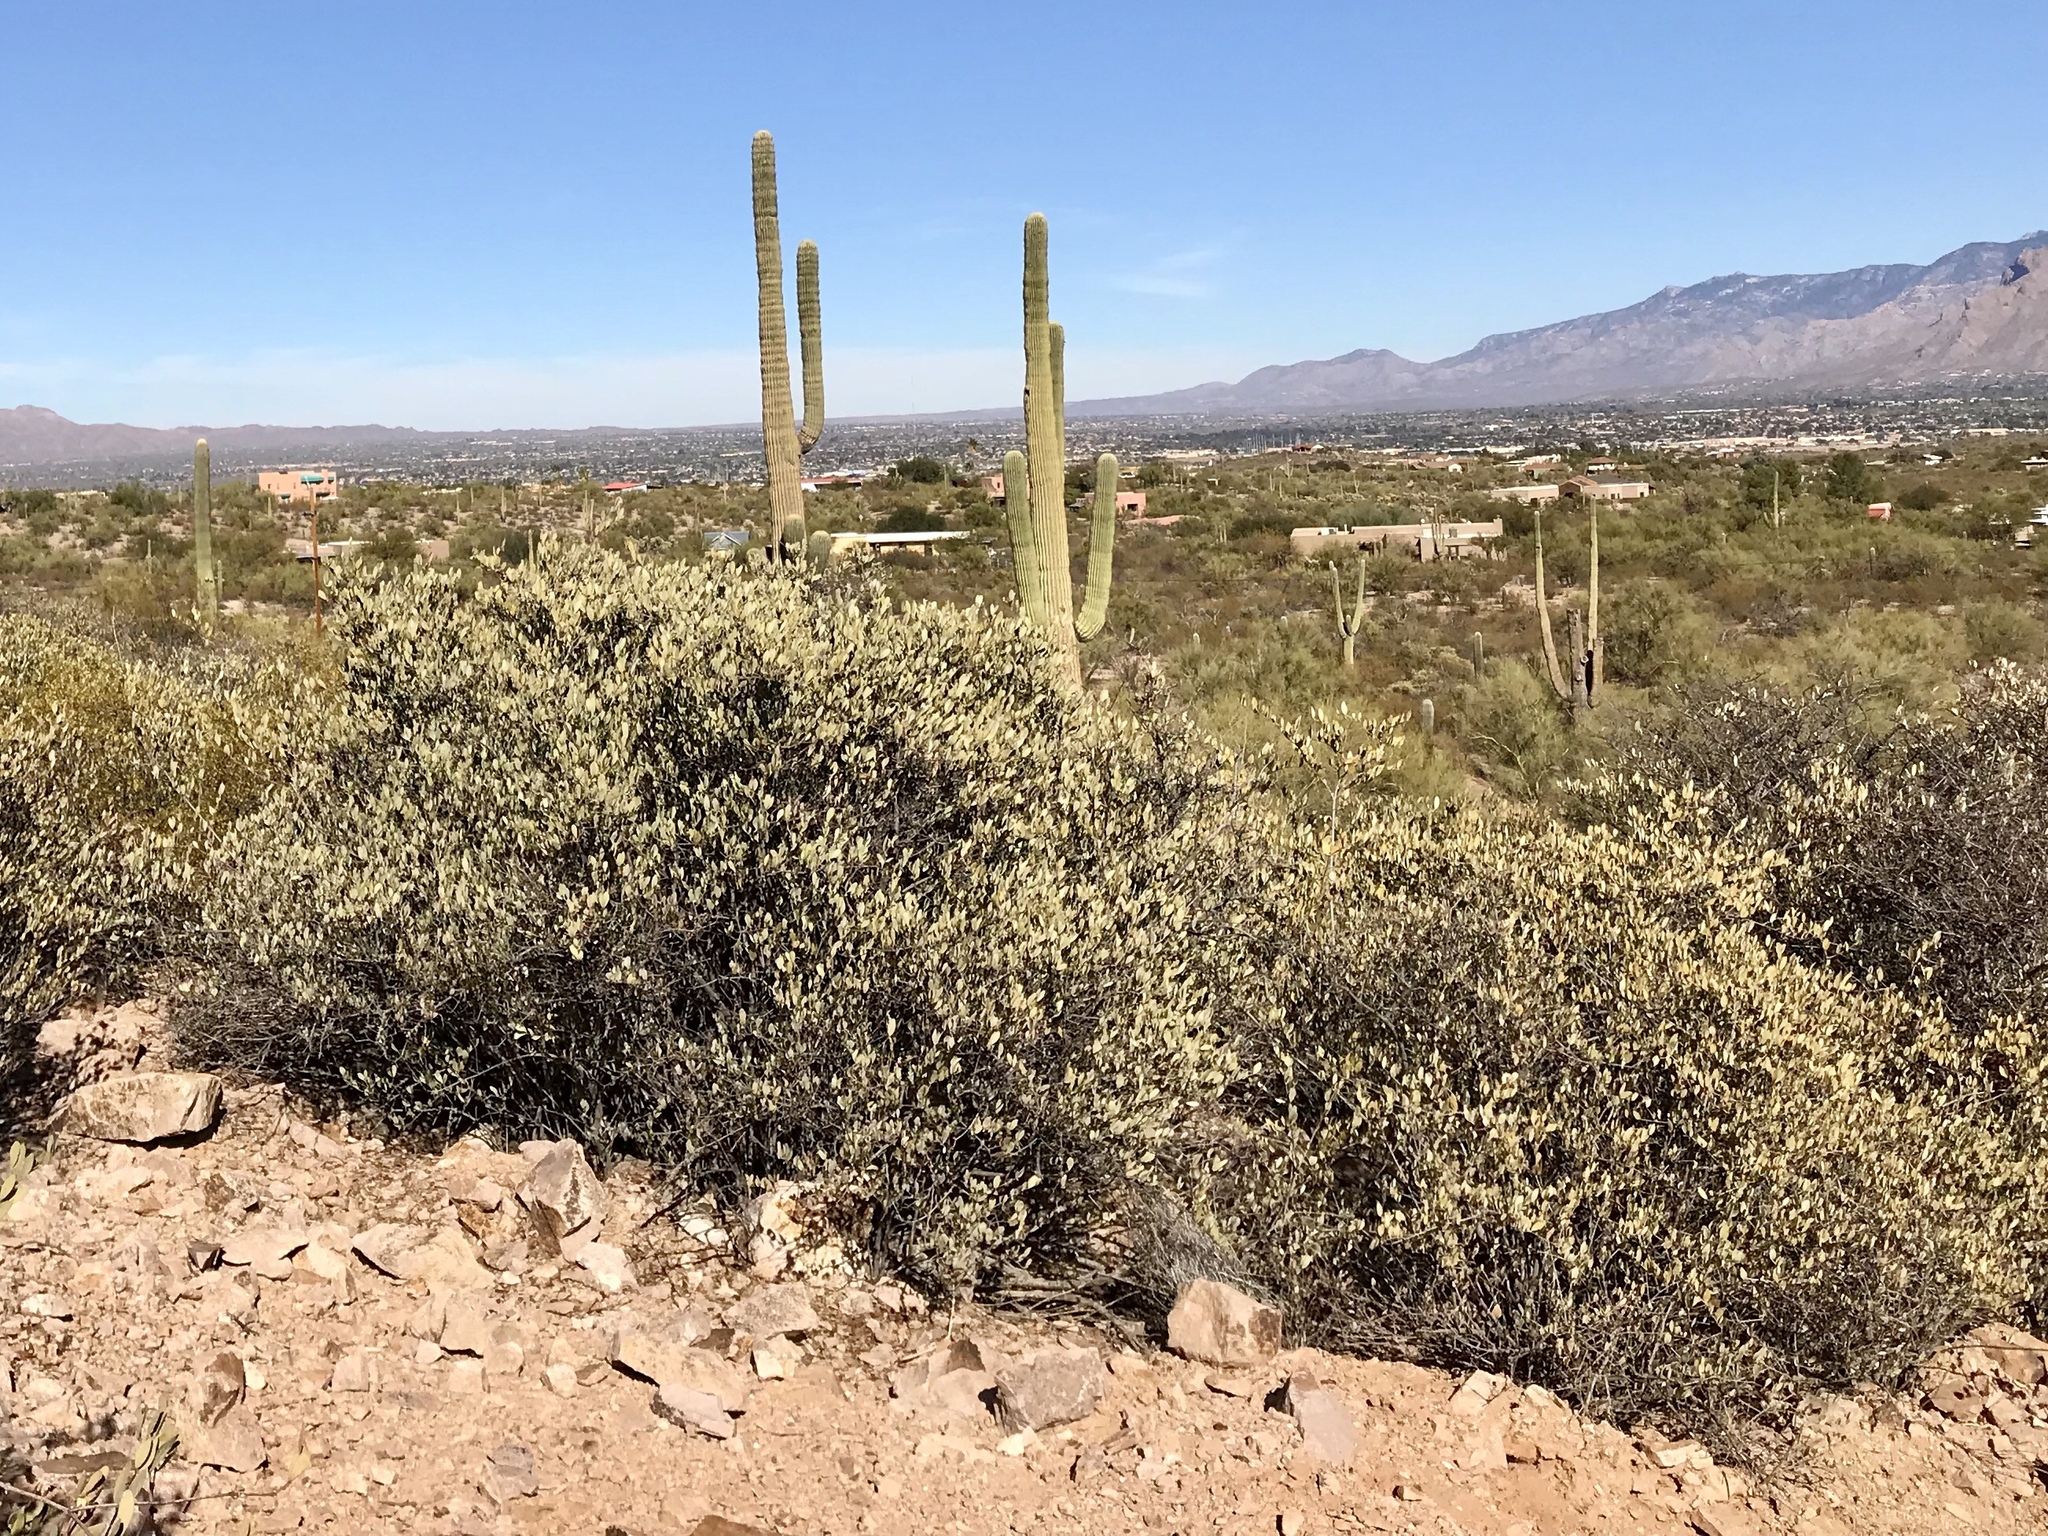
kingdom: Plantae
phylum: Tracheophyta
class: Magnoliopsida
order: Caryophyllales
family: Simmondsiaceae
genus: Simmondsia
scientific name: Simmondsia chinensis
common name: Jojoba
